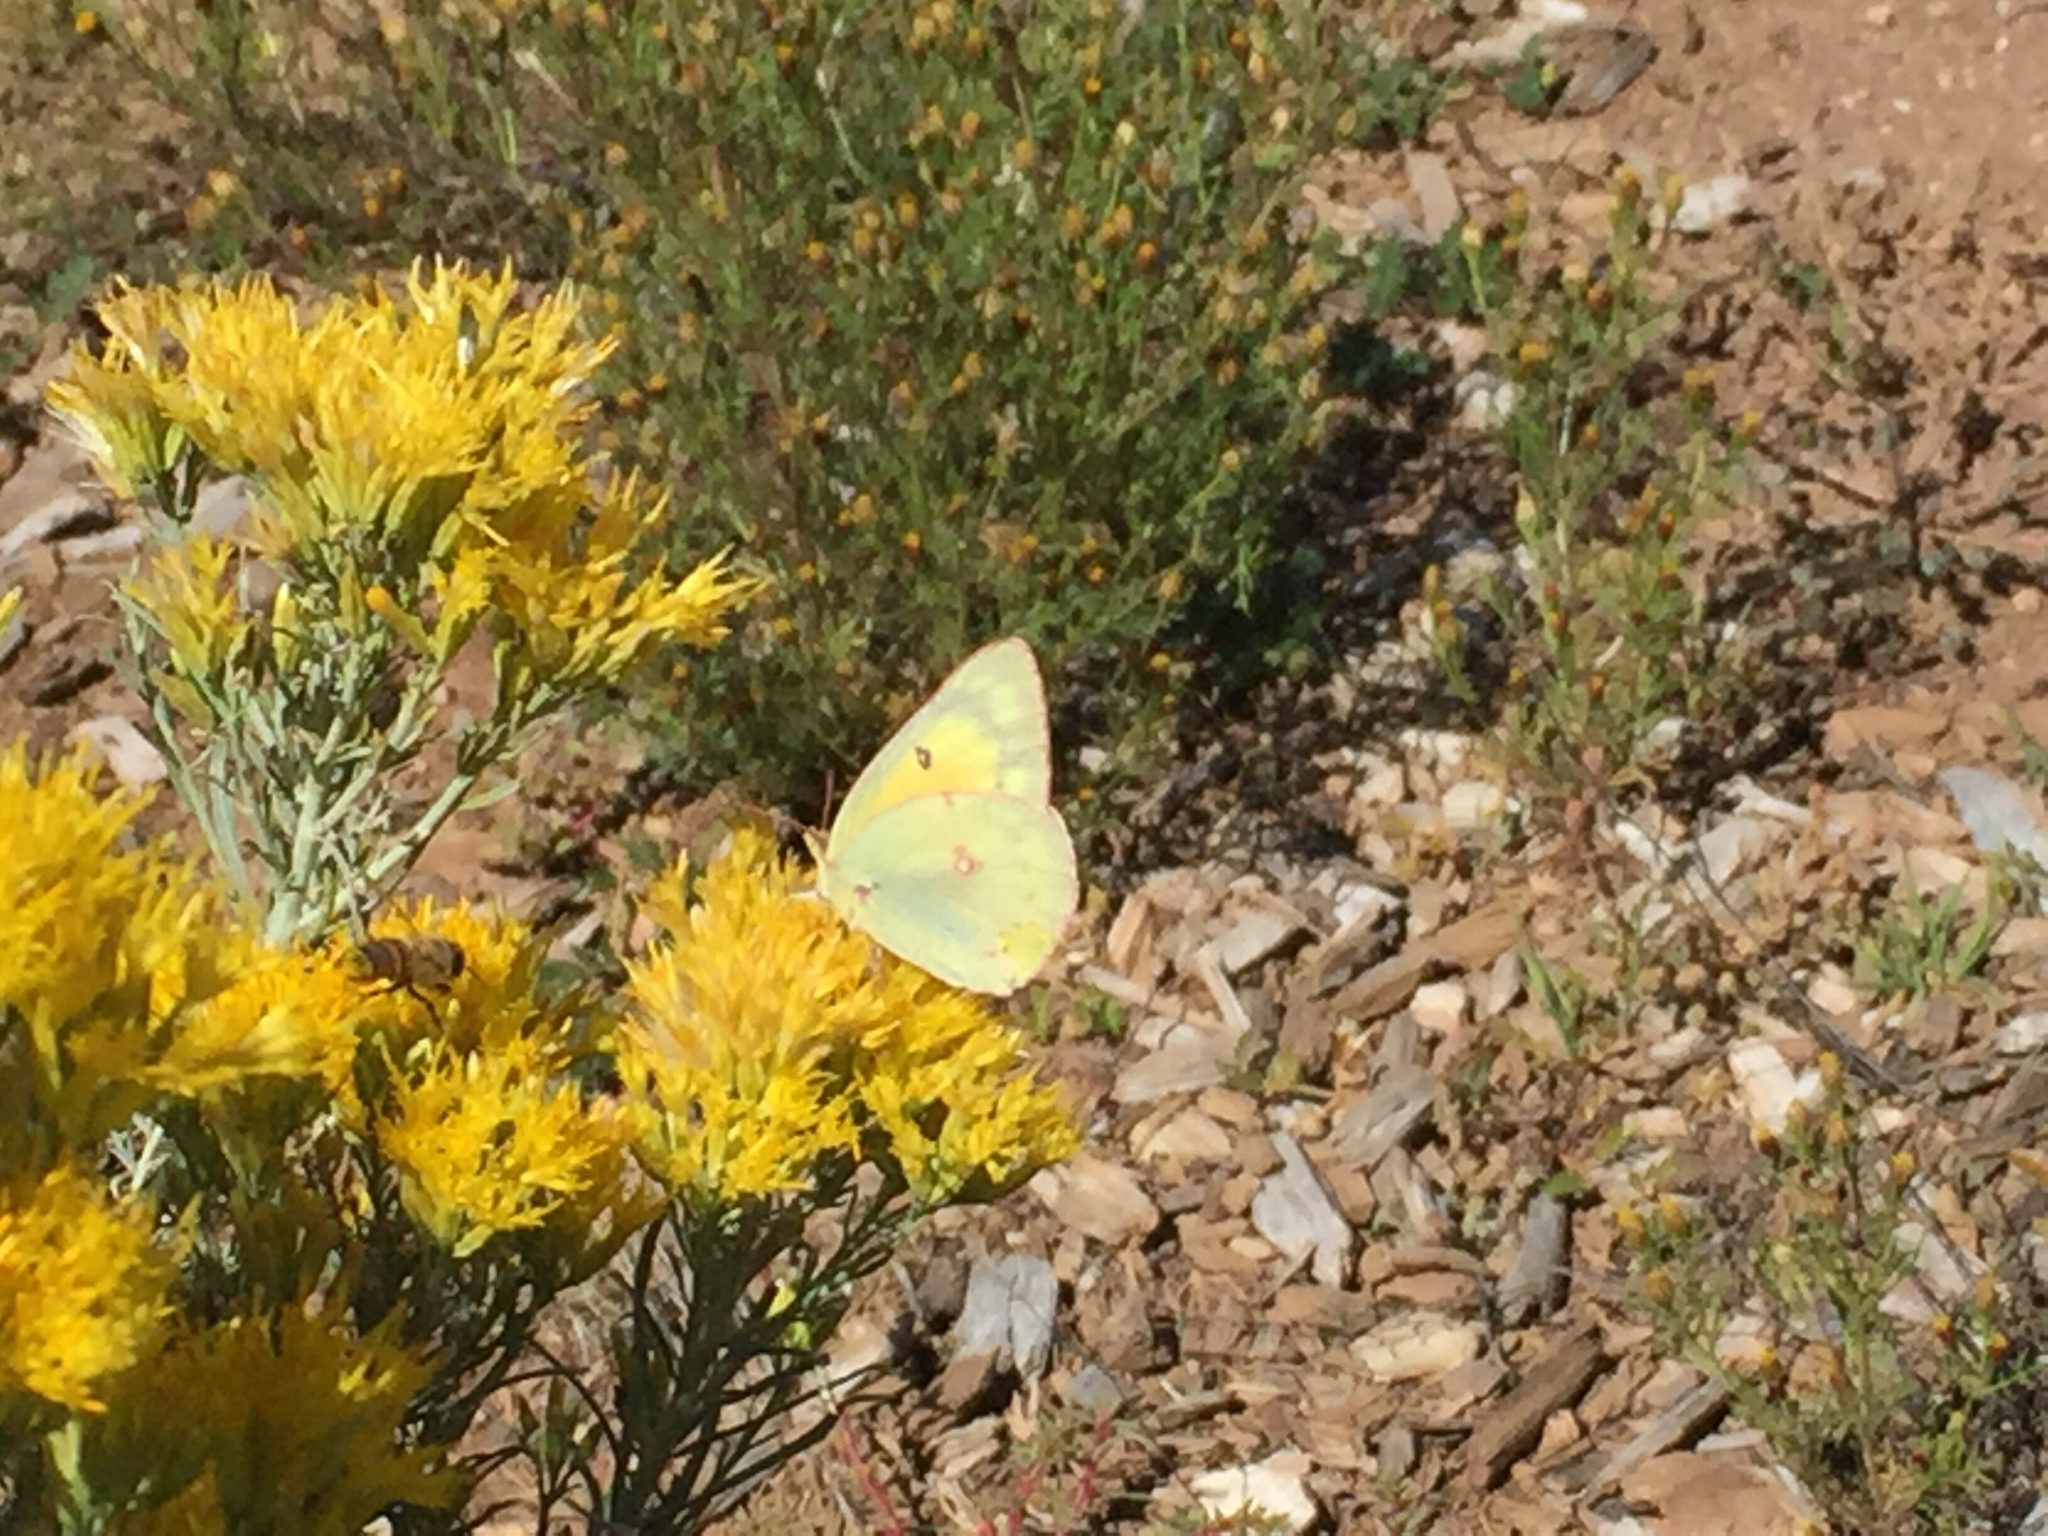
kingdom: Animalia
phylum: Arthropoda
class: Insecta
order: Lepidoptera
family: Pieridae
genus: Colias
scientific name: Colias eurytheme
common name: Alfalfa butterfly
